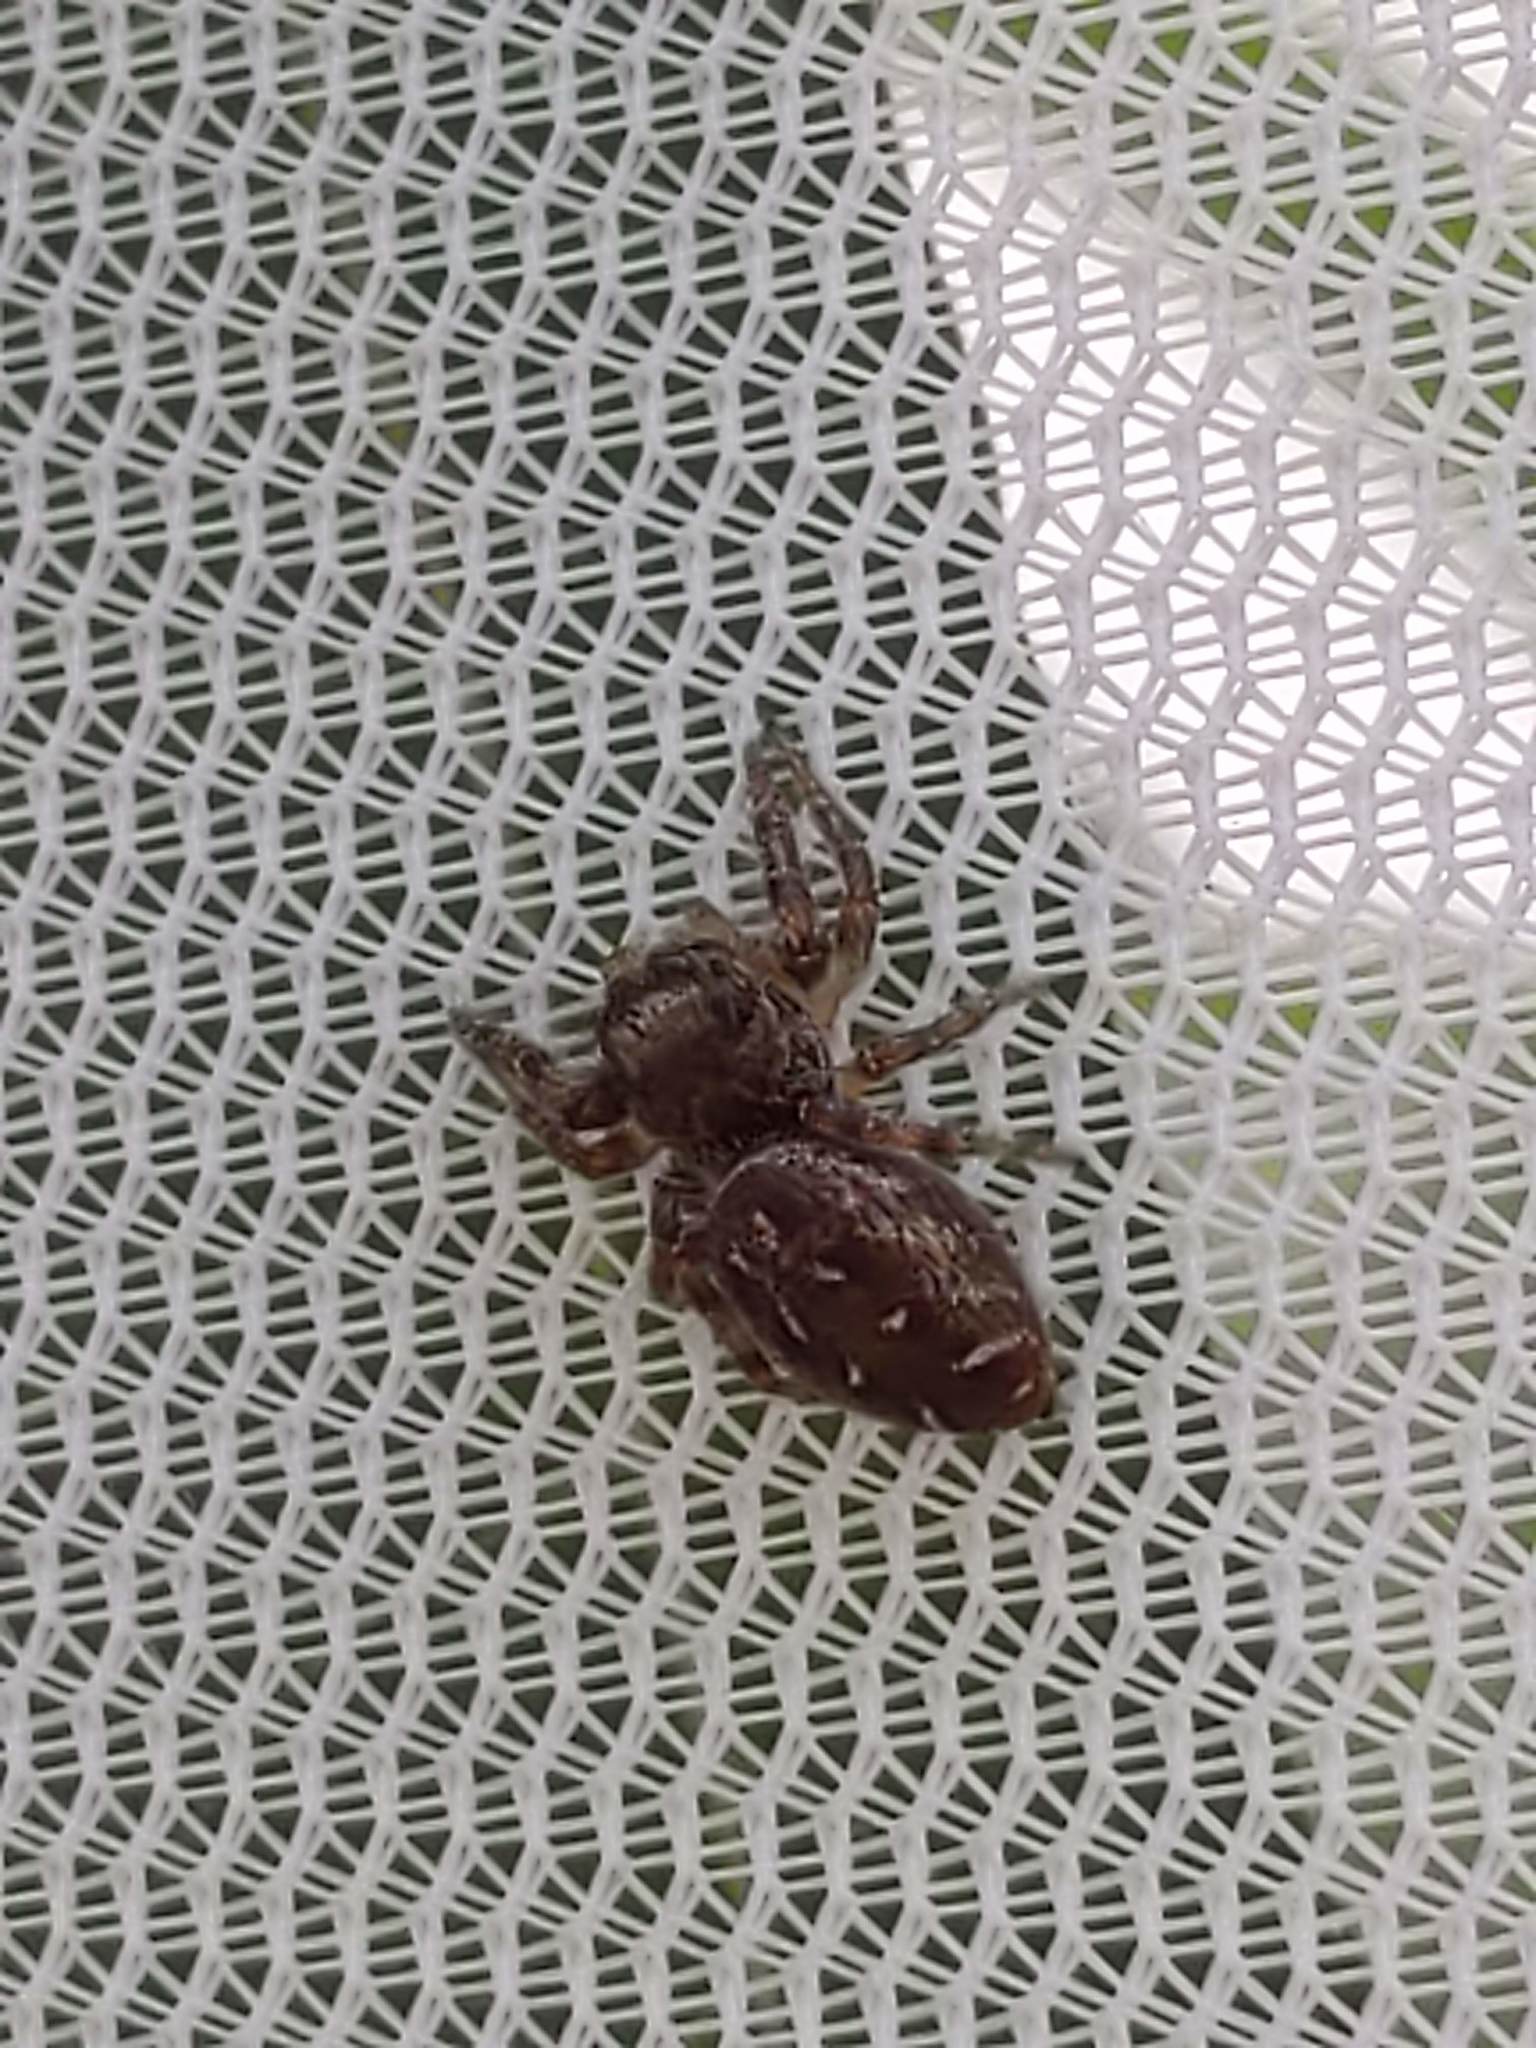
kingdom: Animalia
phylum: Arthropoda
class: Arachnida
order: Araneae
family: Salticidae
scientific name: Salticidae
